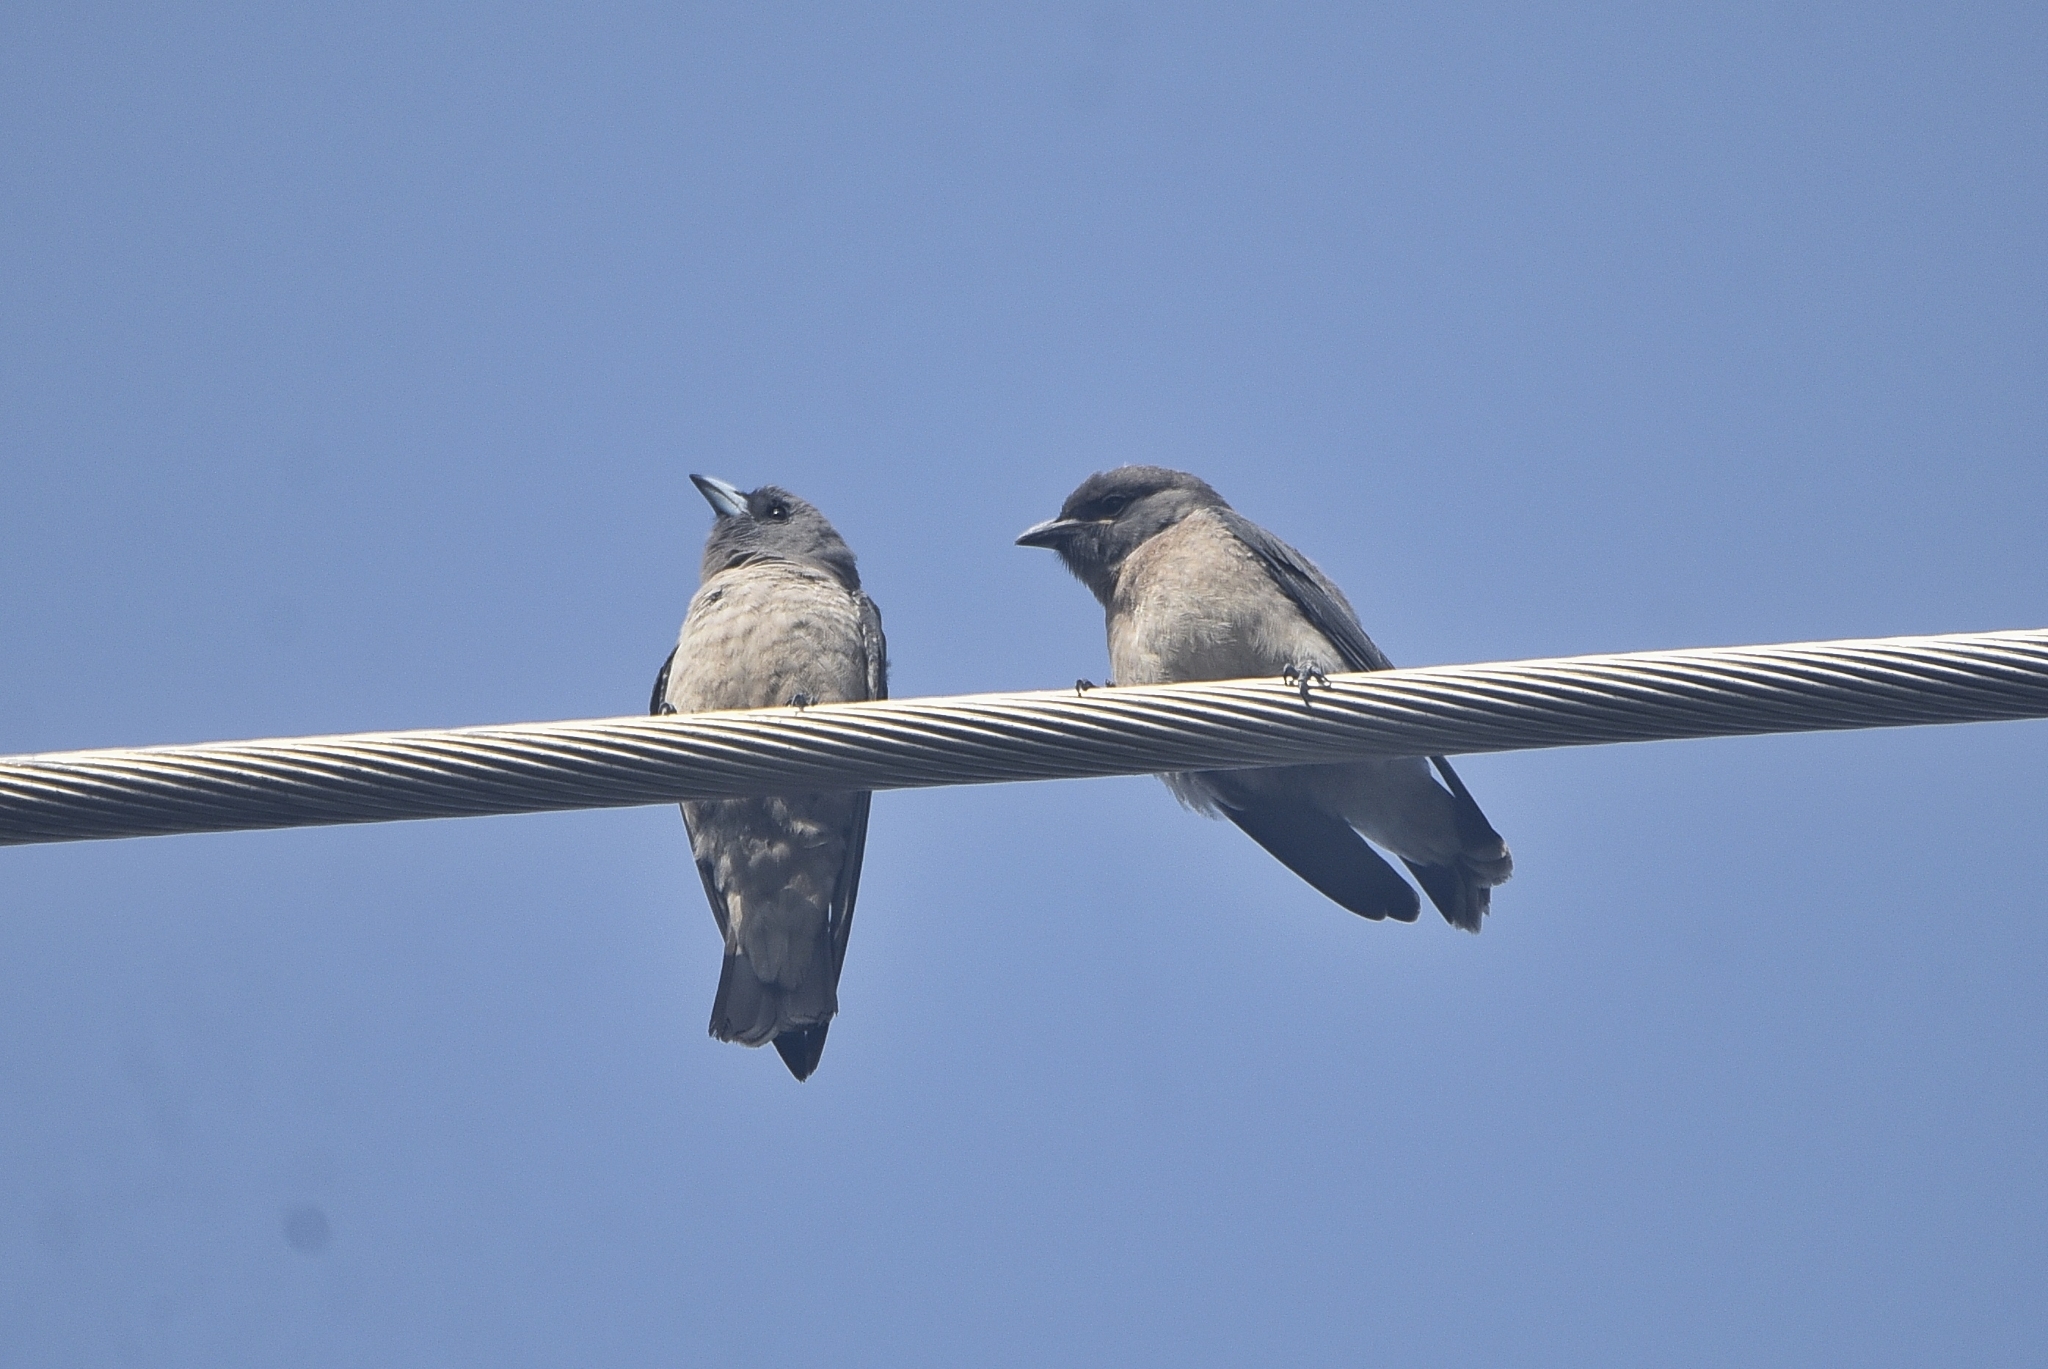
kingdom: Animalia
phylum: Chordata
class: Aves
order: Passeriformes
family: Artamidae
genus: Artamus
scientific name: Artamus fuscus
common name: Ashy woodswallow
